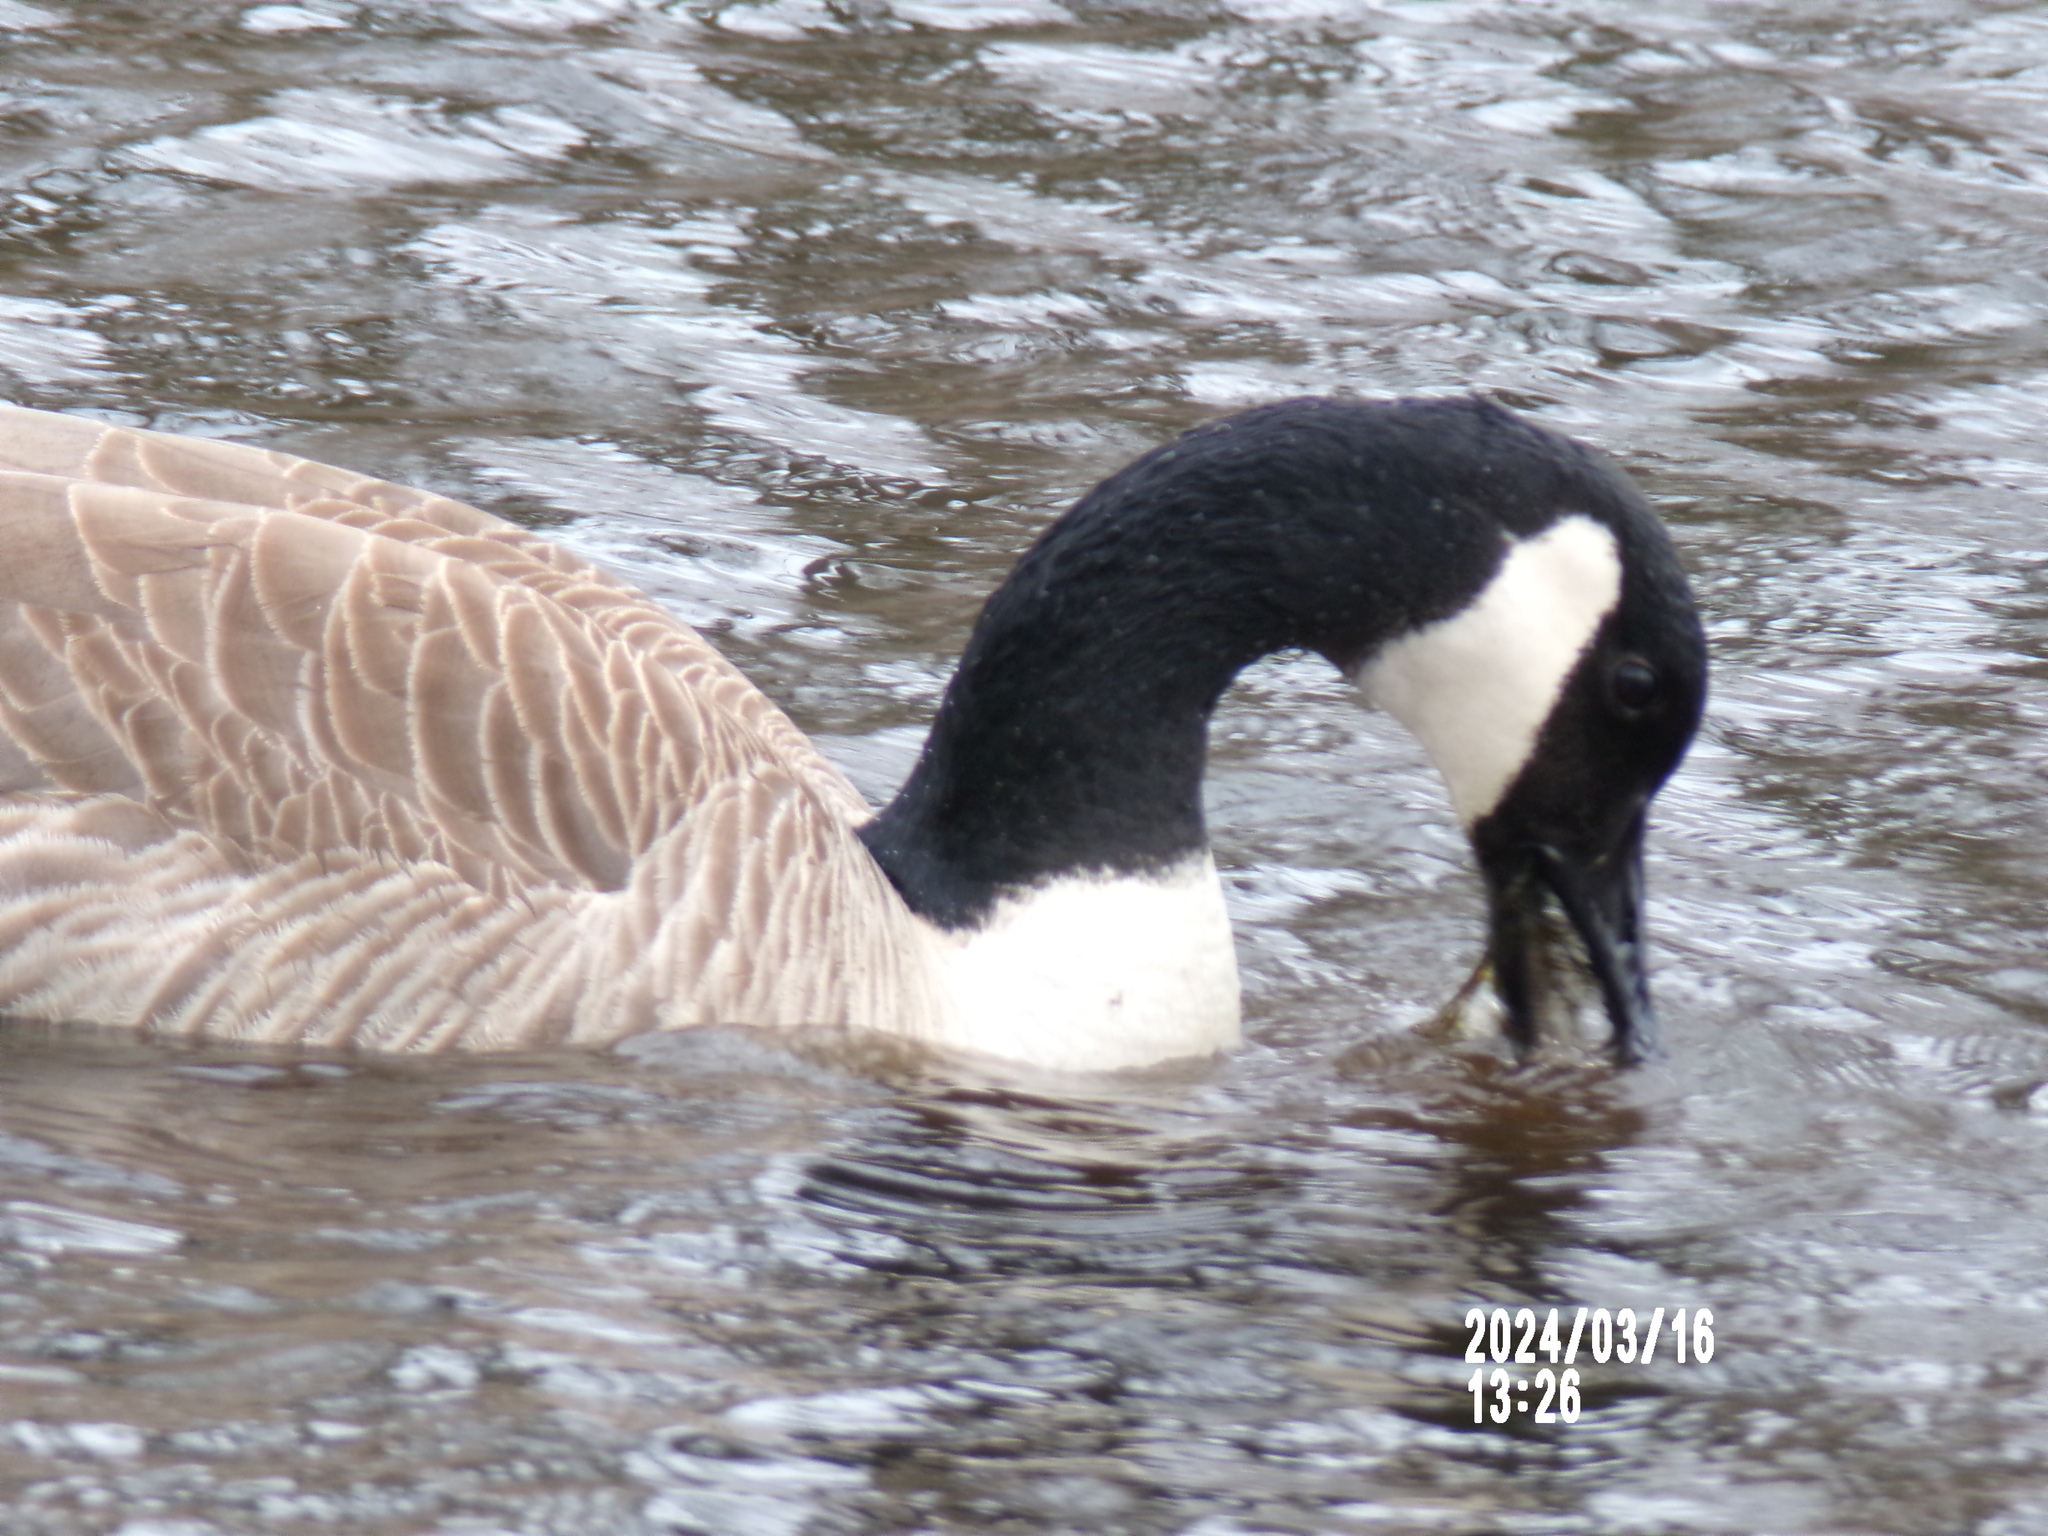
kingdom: Animalia
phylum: Chordata
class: Aves
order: Anseriformes
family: Anatidae
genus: Branta
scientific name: Branta canadensis
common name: Canada goose
